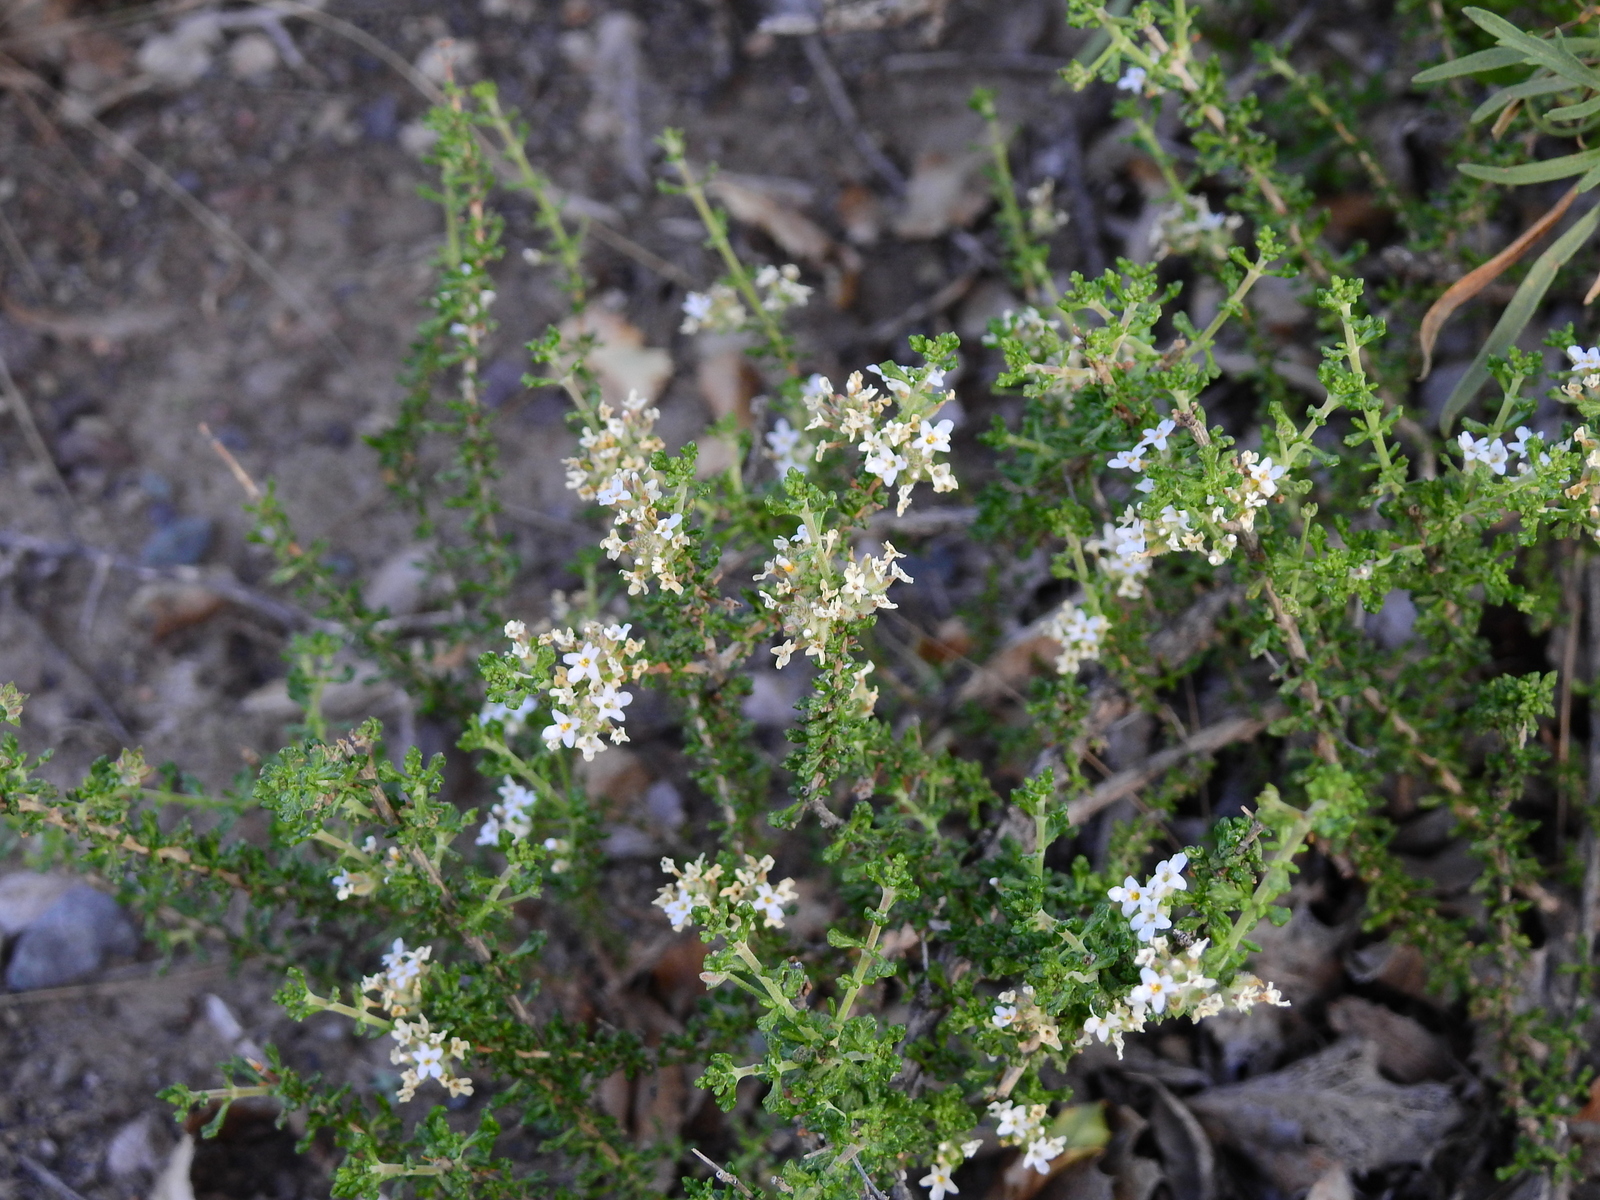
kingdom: Plantae
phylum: Tracheophyta
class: Magnoliopsida
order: Lamiales
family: Verbenaceae
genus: Acantholippia
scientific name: Acantholippia seriphioides
